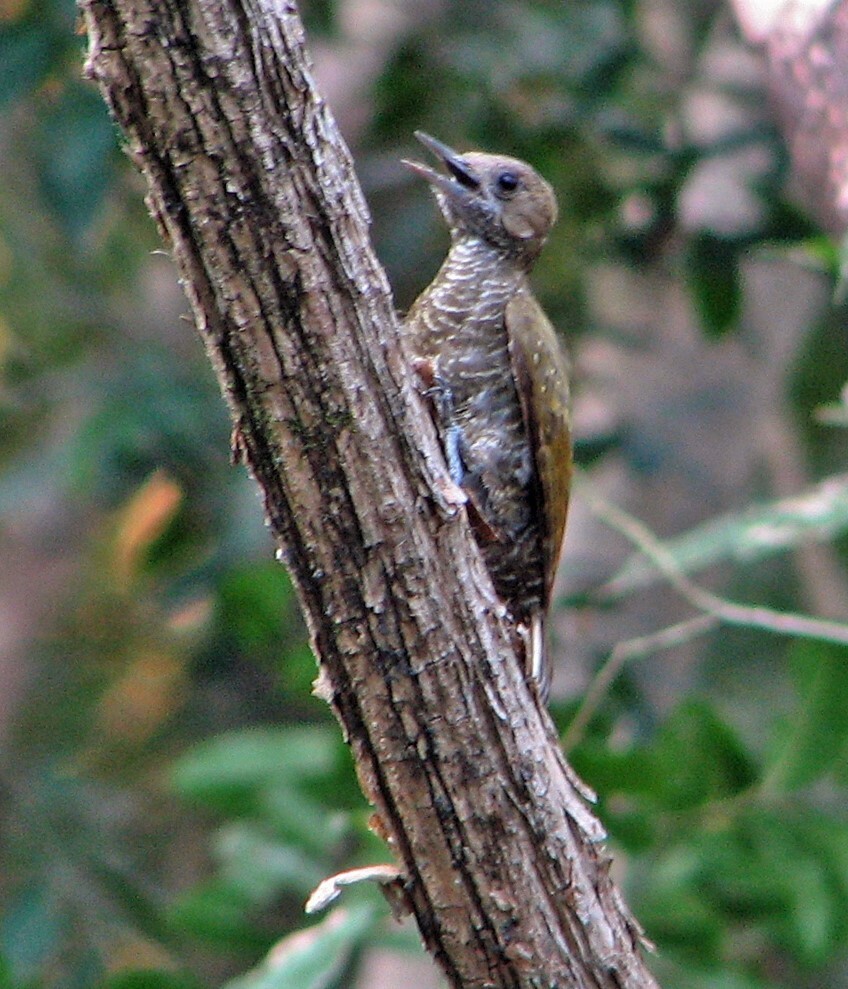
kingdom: Animalia
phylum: Chordata
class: Aves
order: Piciformes
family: Picidae
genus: Veniliornis
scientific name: Veniliornis passerinus
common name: Little woodpecker
